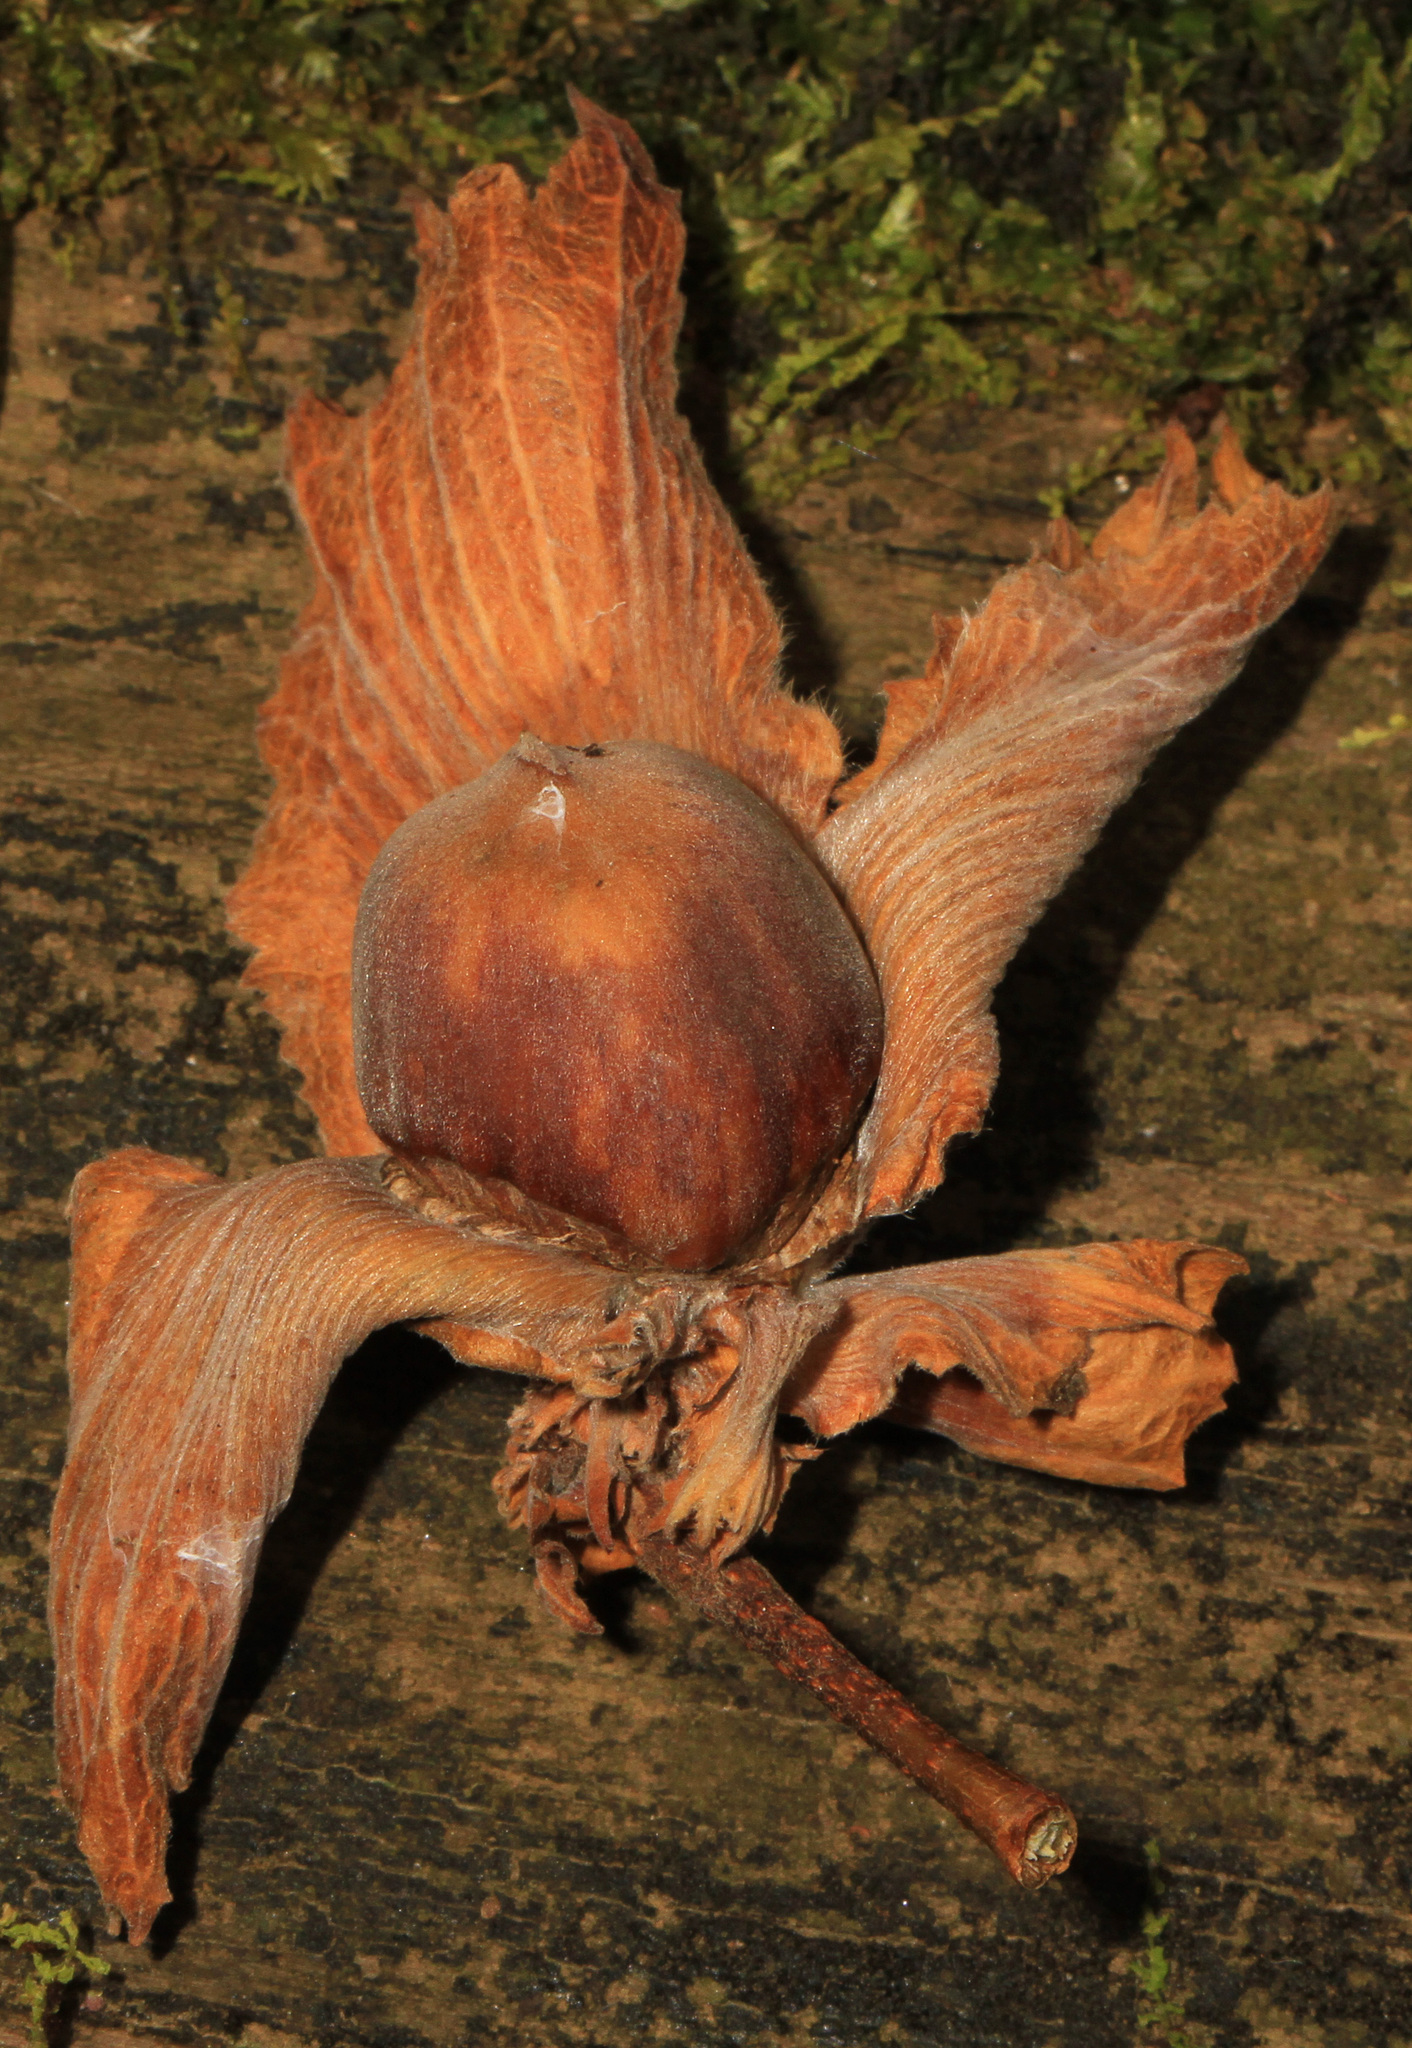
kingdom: Plantae
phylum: Tracheophyta
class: Magnoliopsida
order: Fagales
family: Betulaceae
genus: Corylus
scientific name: Corylus americana
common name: American hazel
